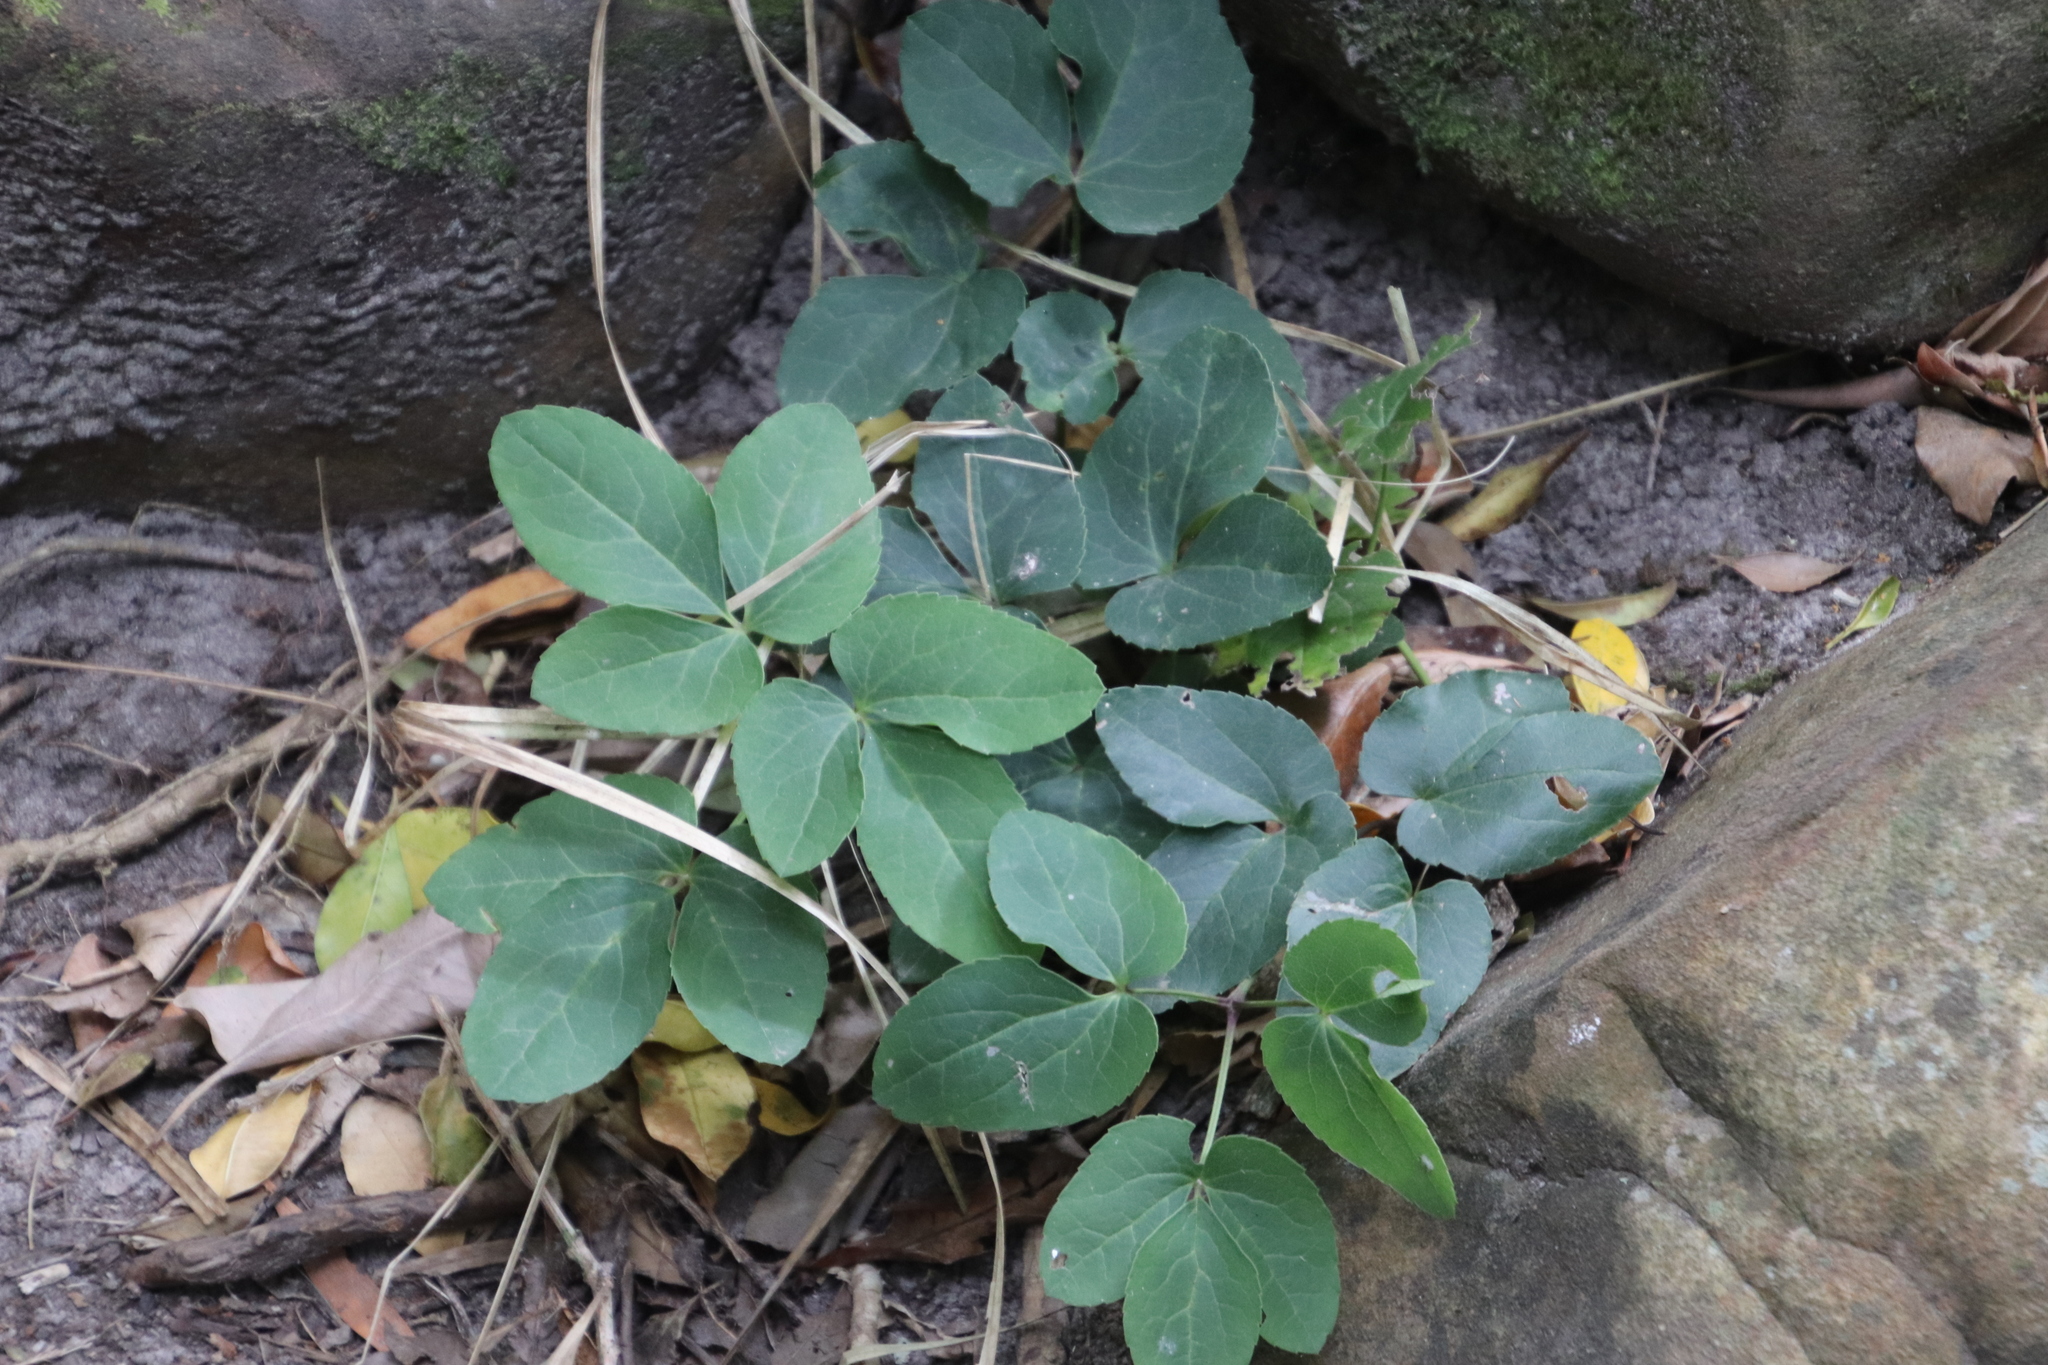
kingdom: Plantae
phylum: Tracheophyta
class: Magnoliopsida
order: Ranunculales
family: Ranunculaceae
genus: Knowltonia
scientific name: Knowltonia vesicatoria
